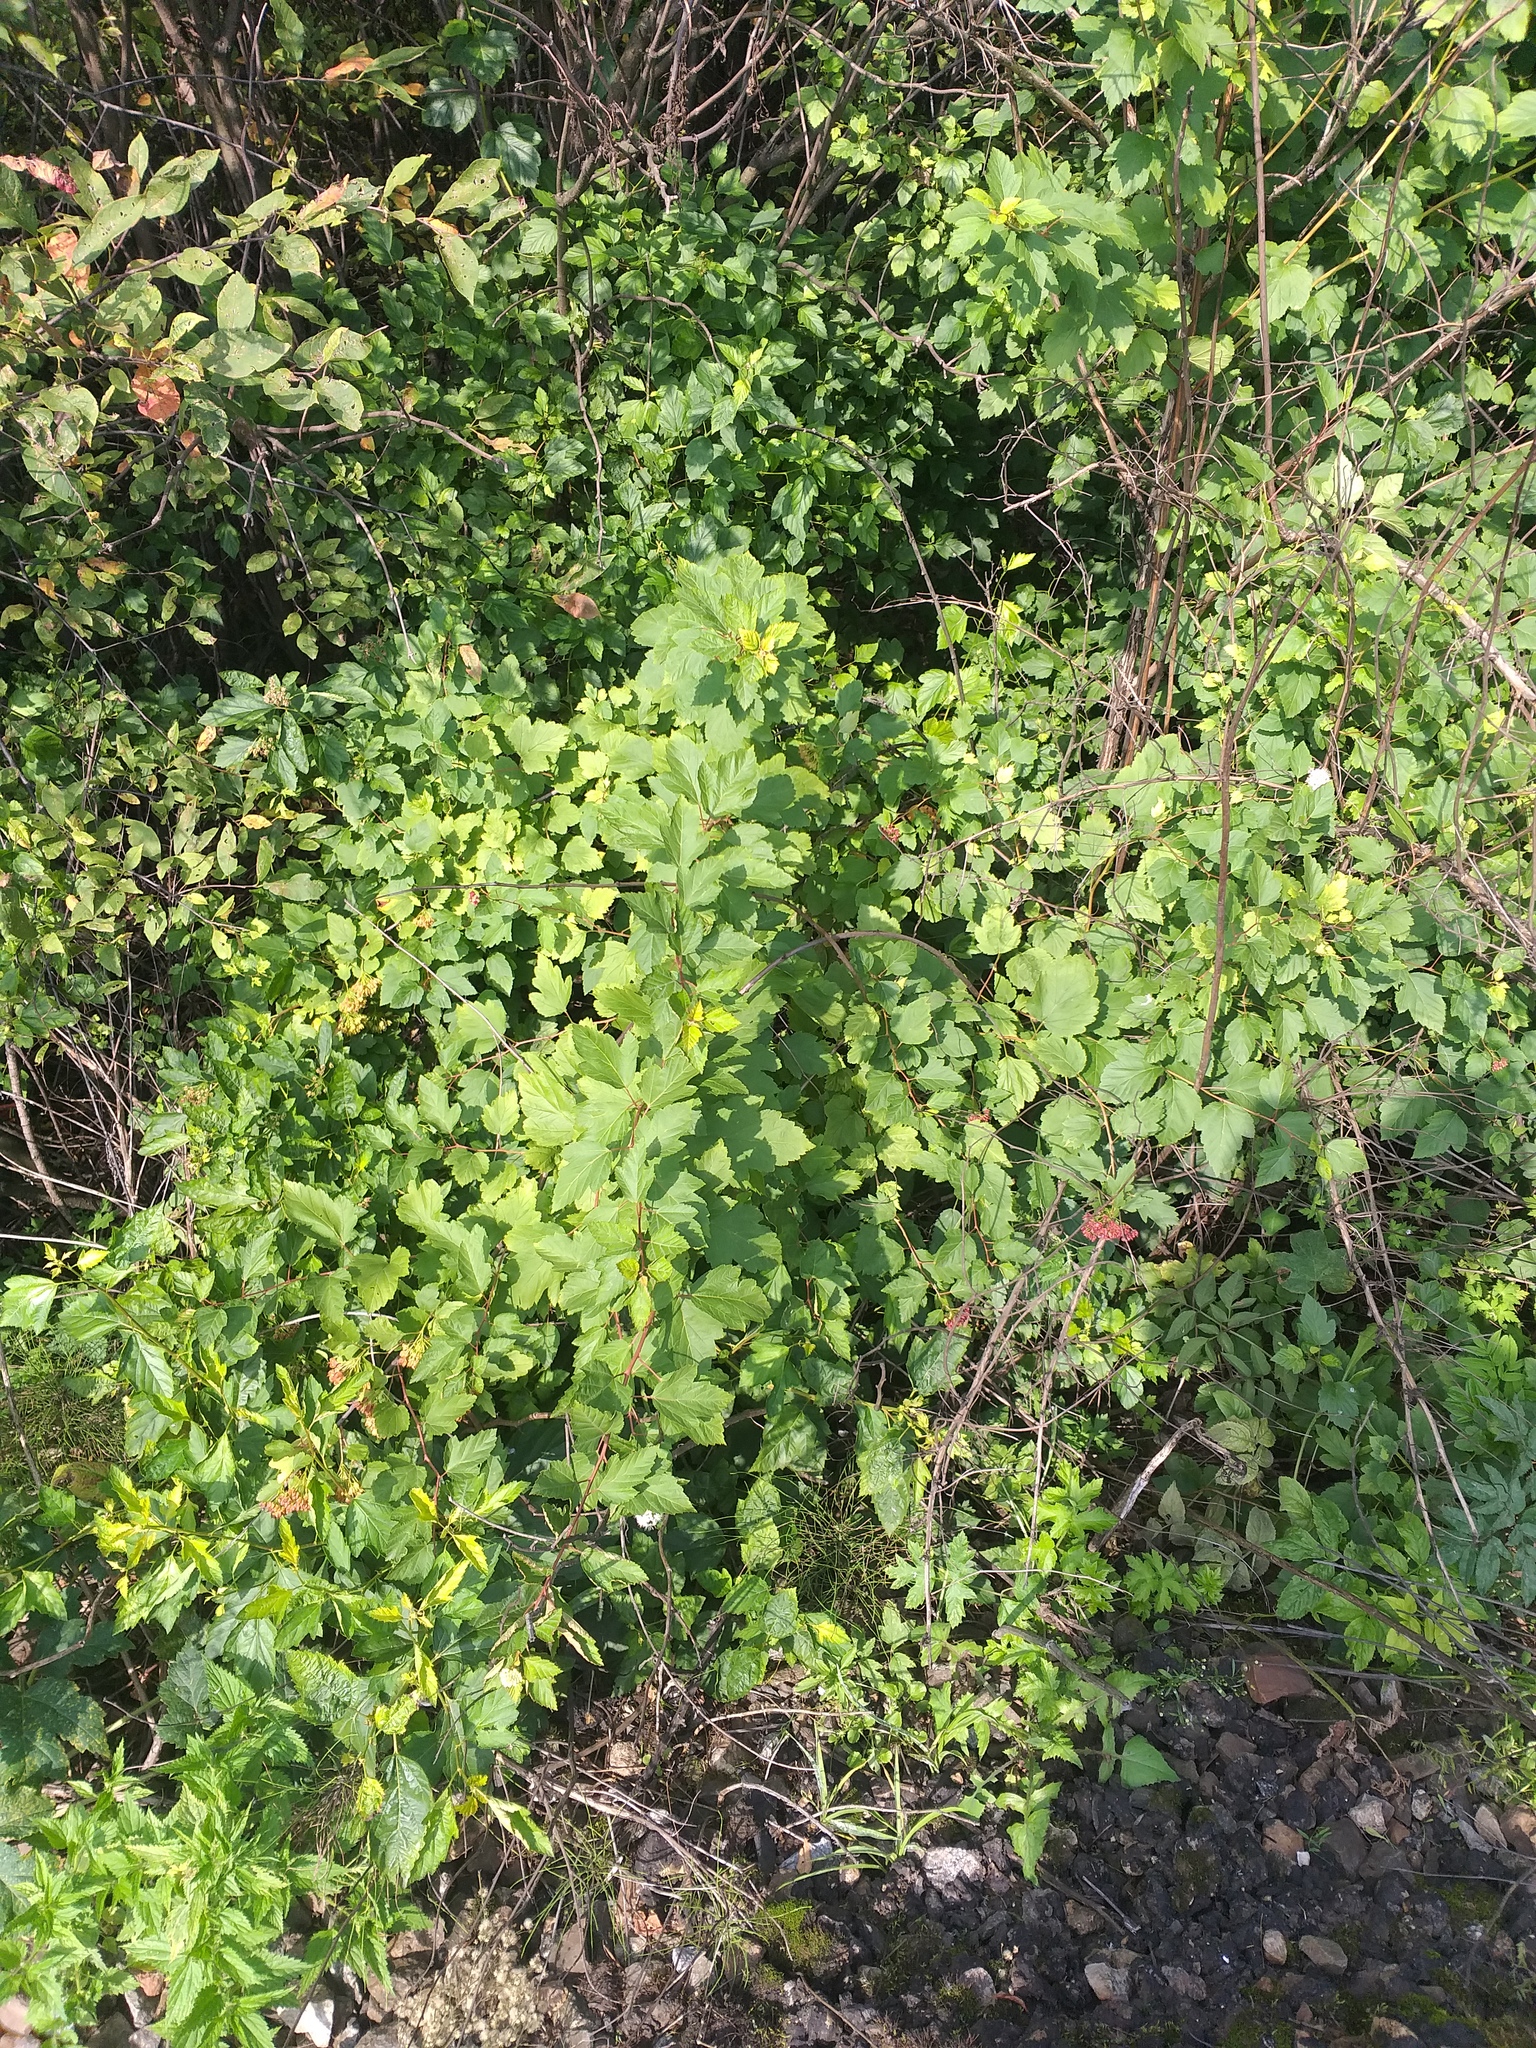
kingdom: Plantae
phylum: Tracheophyta
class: Magnoliopsida
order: Rosales
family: Rosaceae
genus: Physocarpus
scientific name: Physocarpus opulifolius
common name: Ninebark
